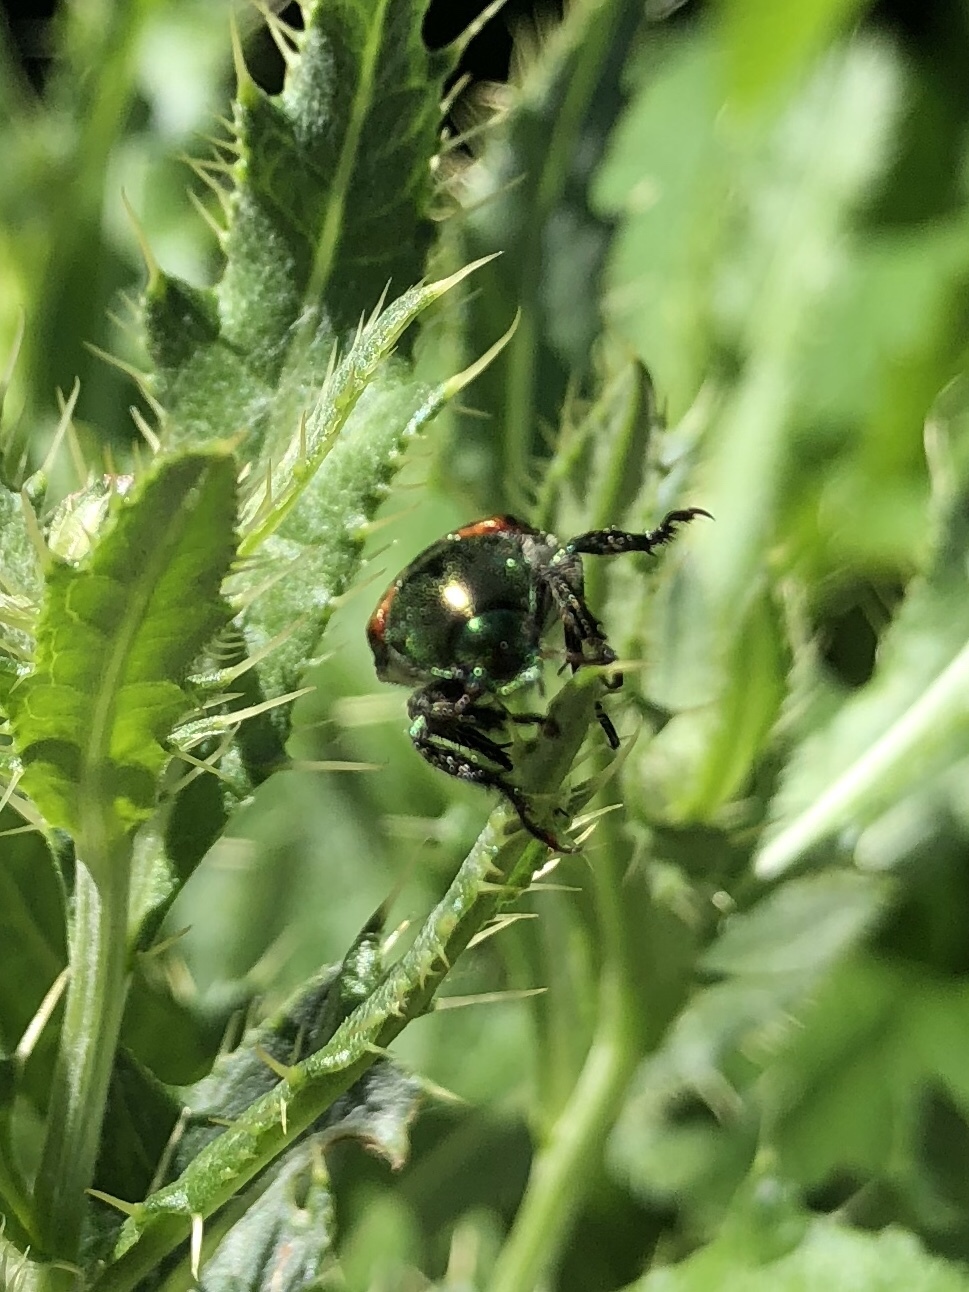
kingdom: Animalia
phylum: Arthropoda
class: Insecta
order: Coleoptera
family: Scarabaeidae
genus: Popillia
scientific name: Popillia japonica
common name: Japanese beetle
